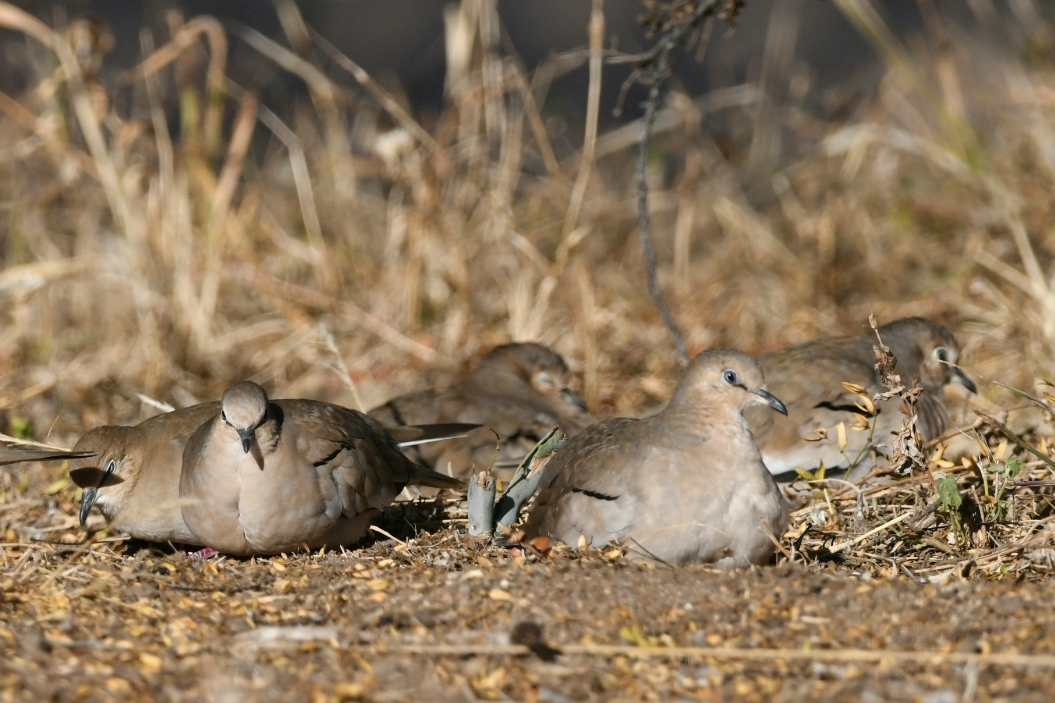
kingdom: Animalia
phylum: Chordata
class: Aves
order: Columbiformes
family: Columbidae
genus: Columbina
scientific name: Columbina picui
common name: Picui ground dove
